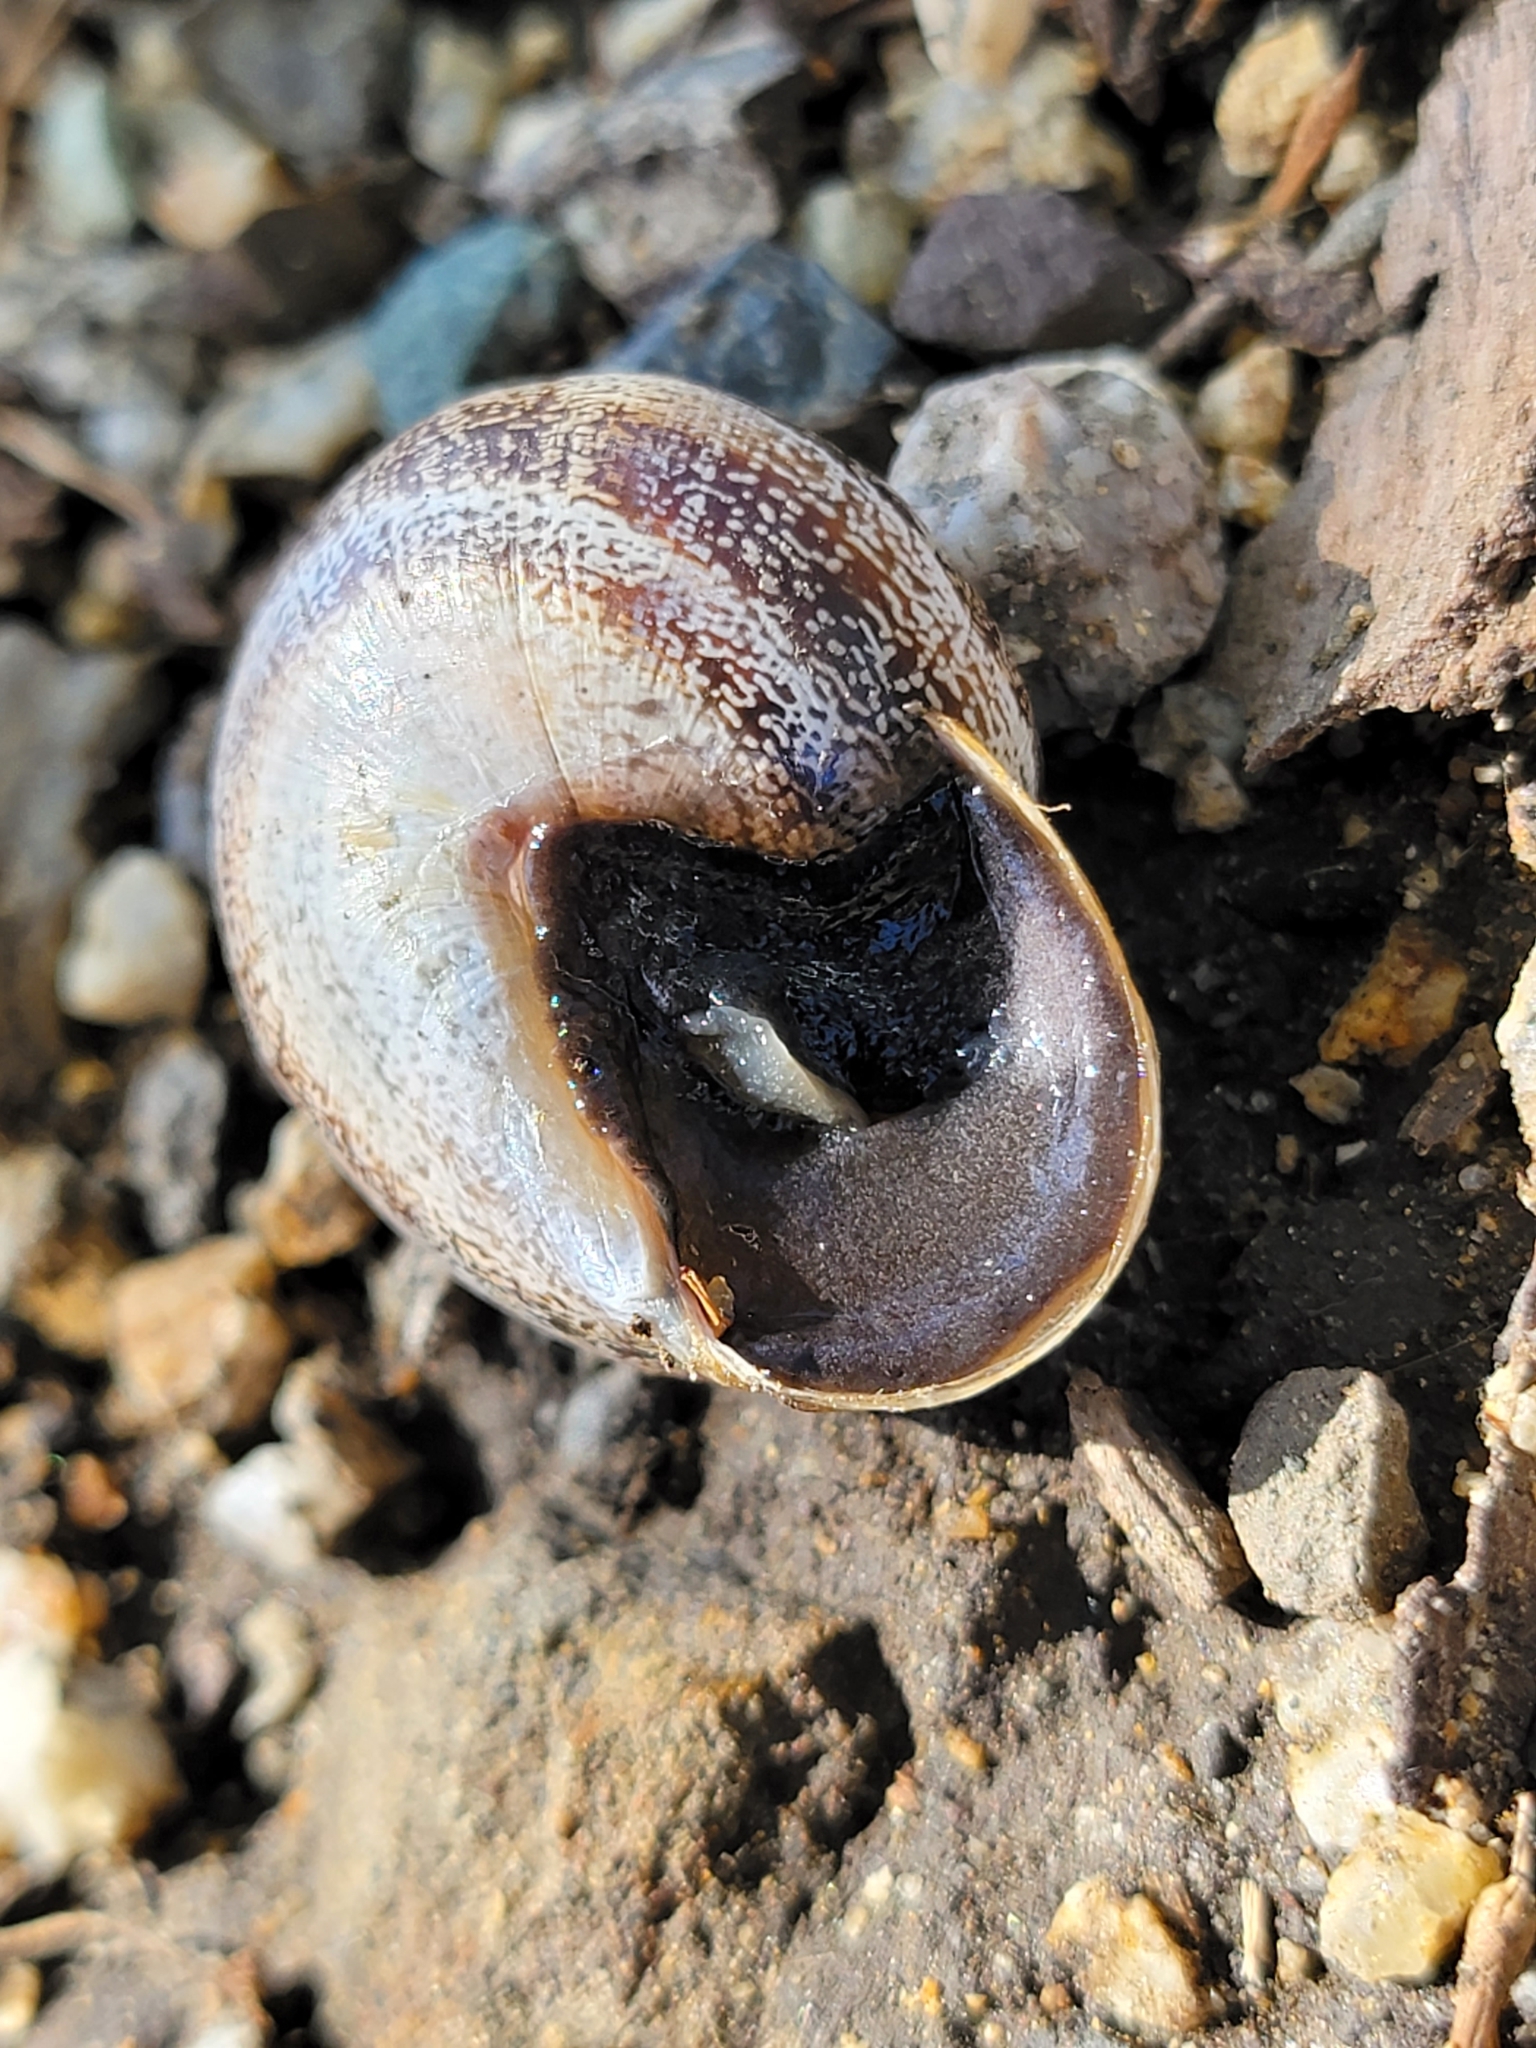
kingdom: Animalia
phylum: Mollusca
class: Gastropoda
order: Stylommatophora
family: Helicidae
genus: Otala
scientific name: Otala lactea
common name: Milk snail
